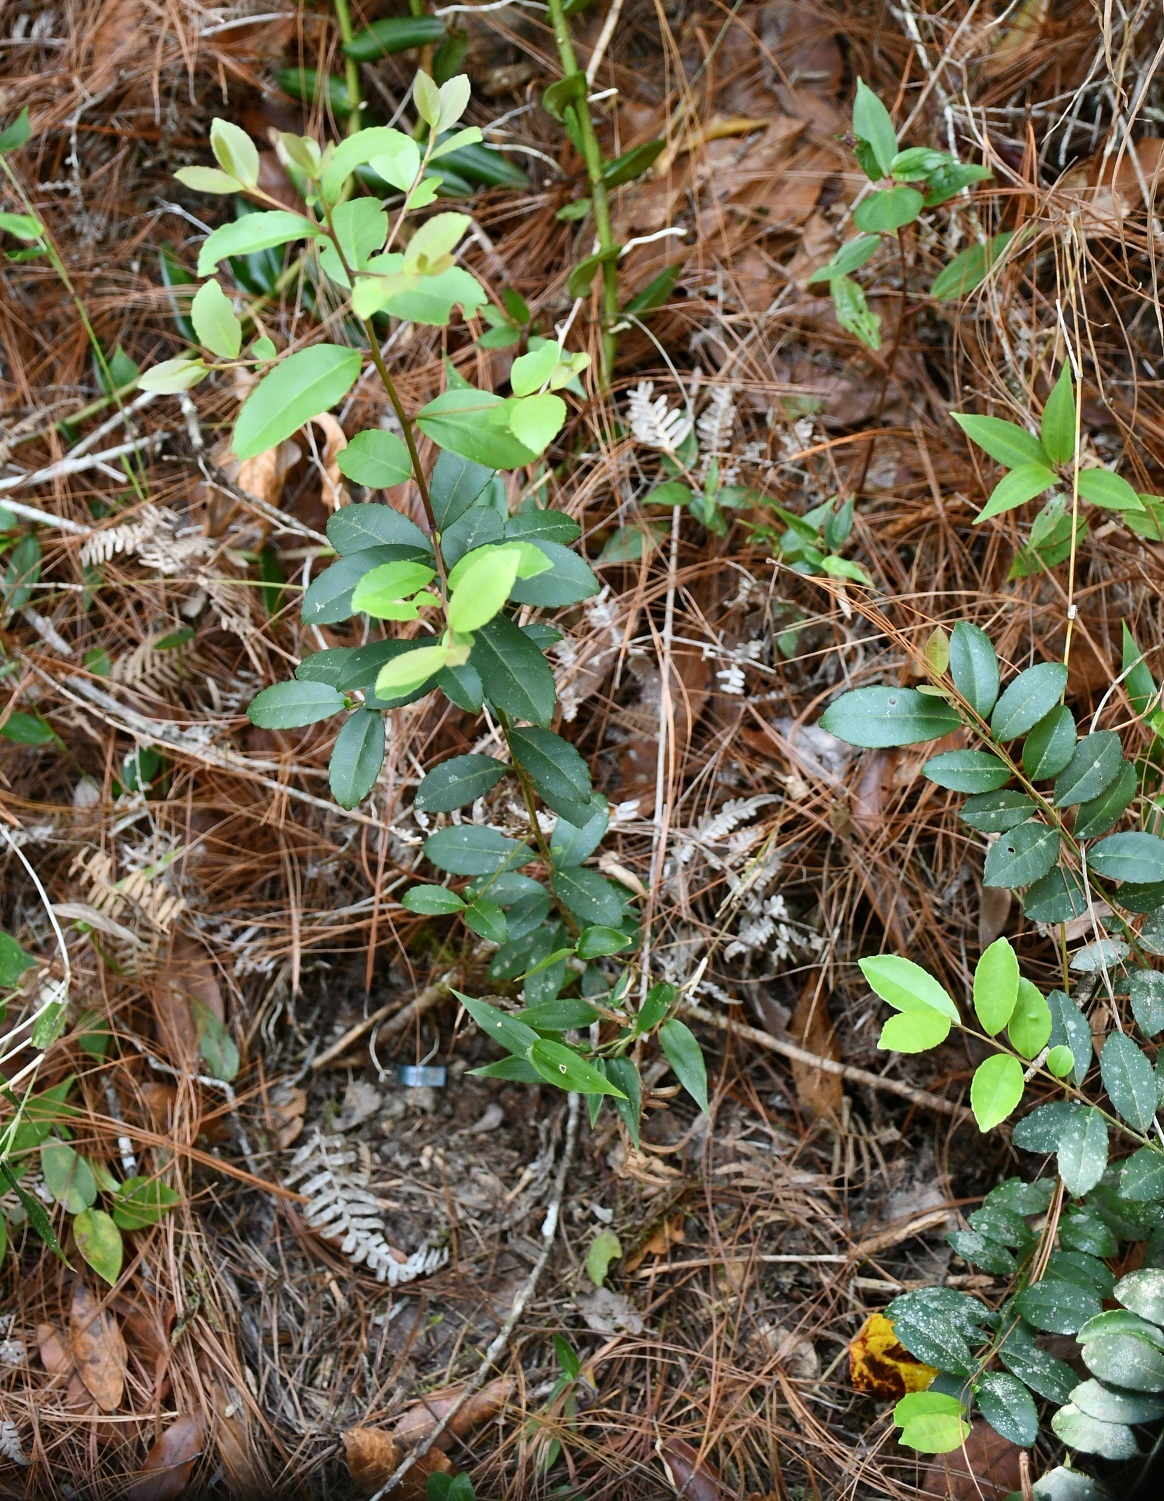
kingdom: Plantae
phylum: Tracheophyta
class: Magnoliopsida
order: Aquifoliales
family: Aquifoliaceae
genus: Ilex
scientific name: Ilex vomitoria
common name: Yaupon holly
